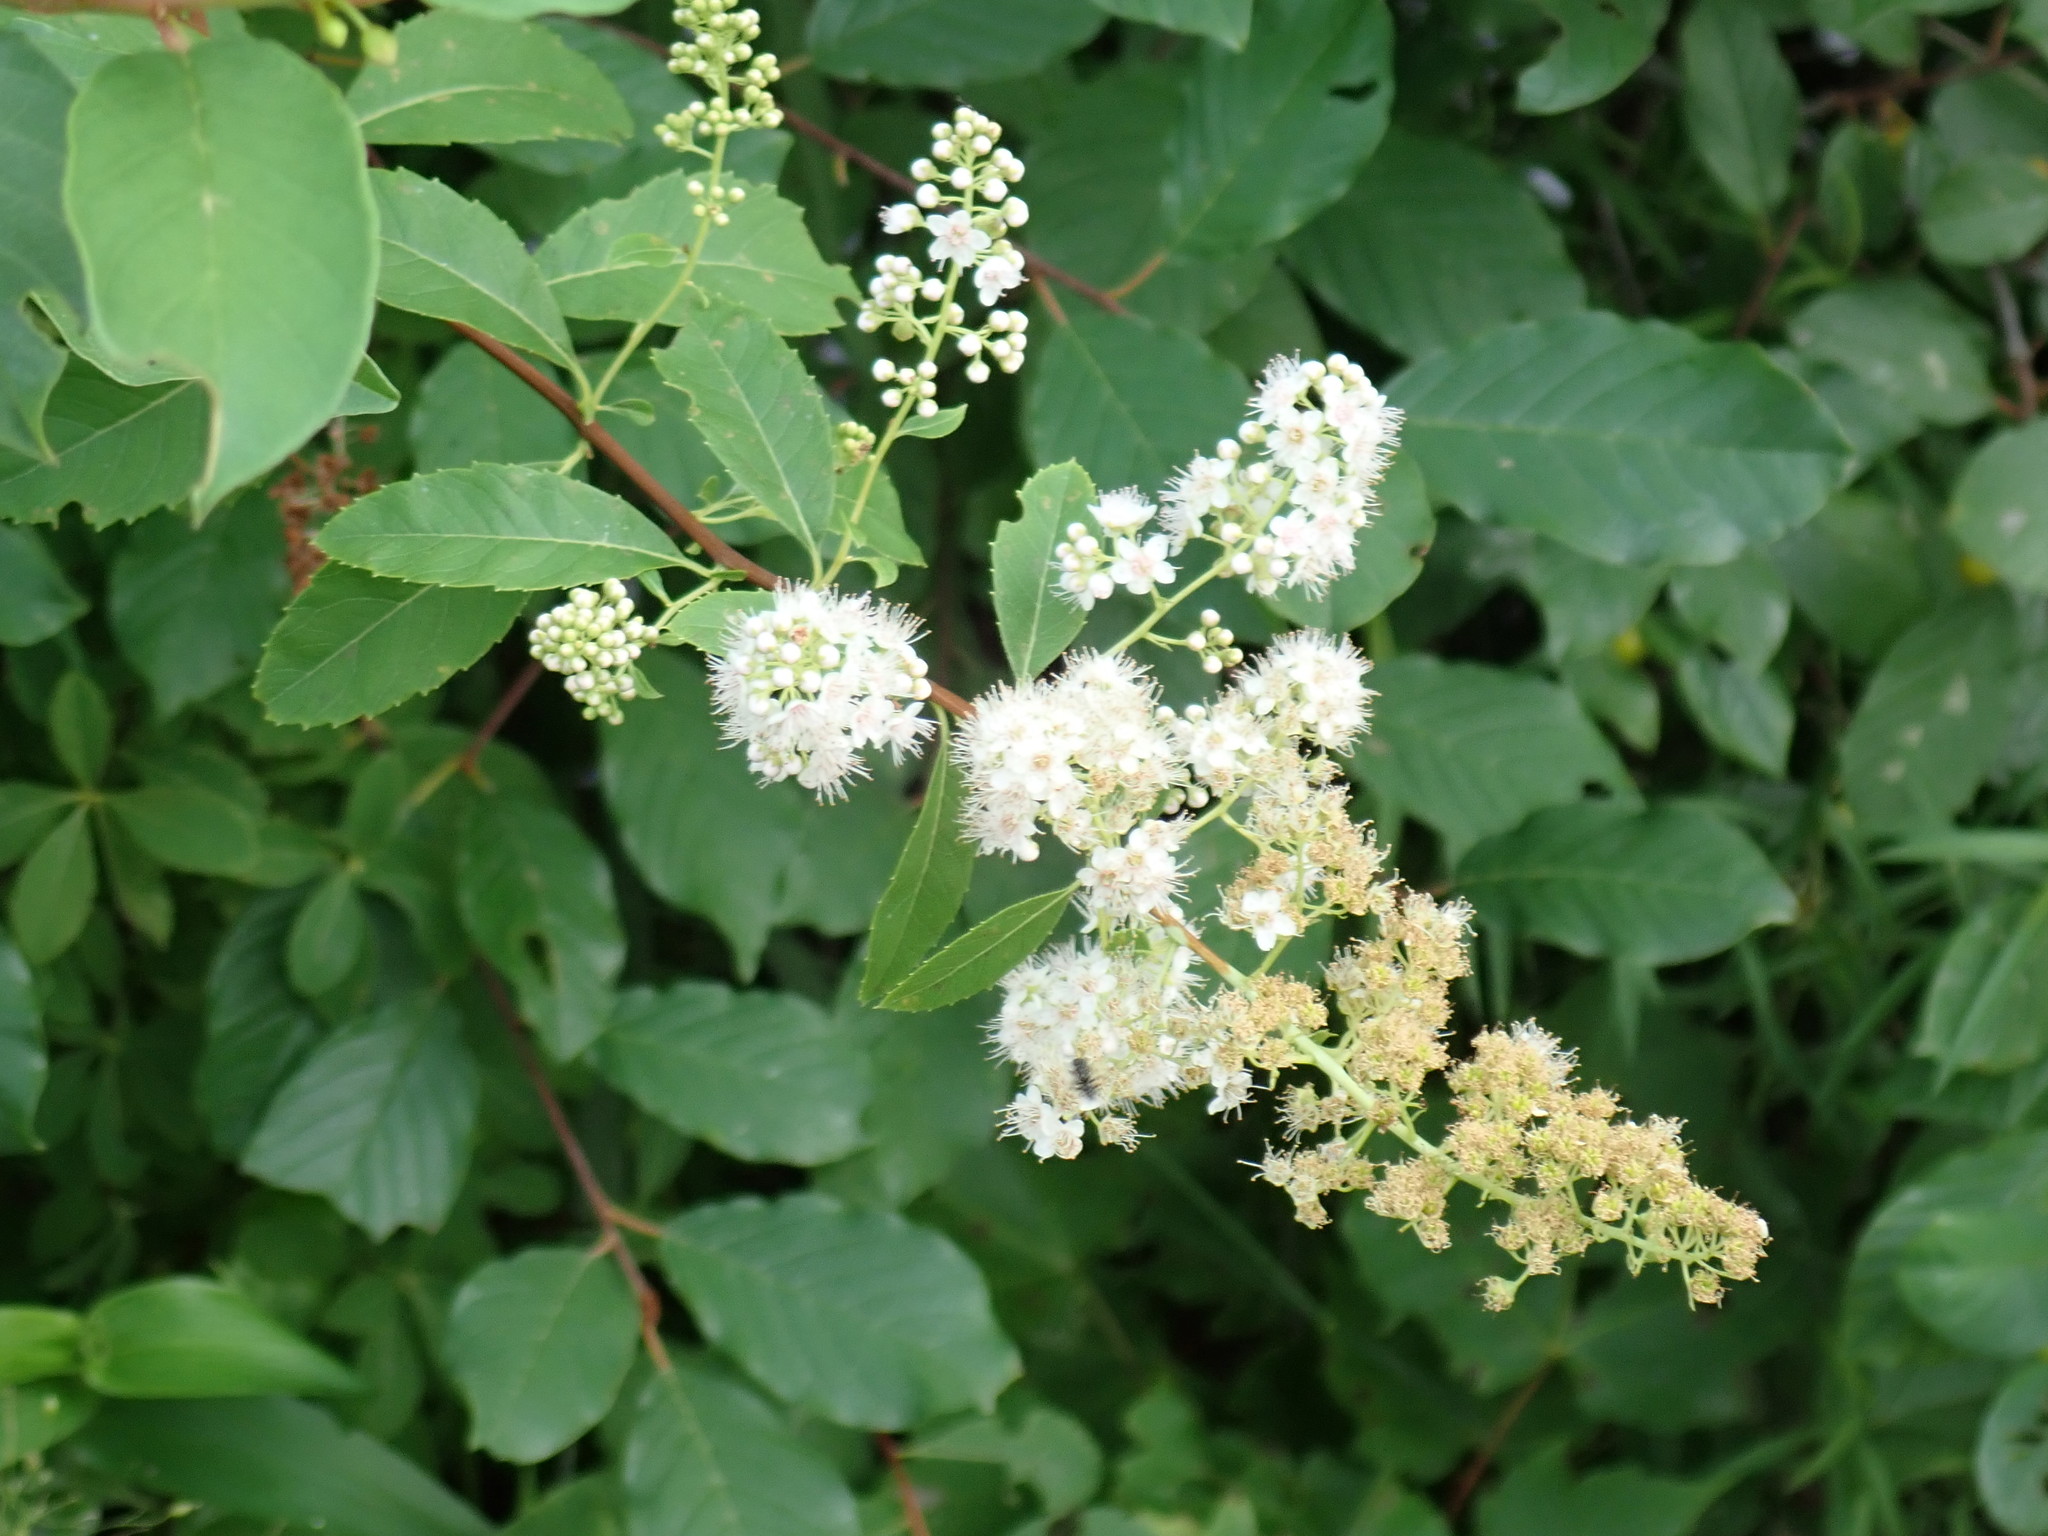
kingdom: Plantae
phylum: Tracheophyta
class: Magnoliopsida
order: Rosales
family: Rosaceae
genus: Spiraea
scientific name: Spiraea alba
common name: Pale bridewort
